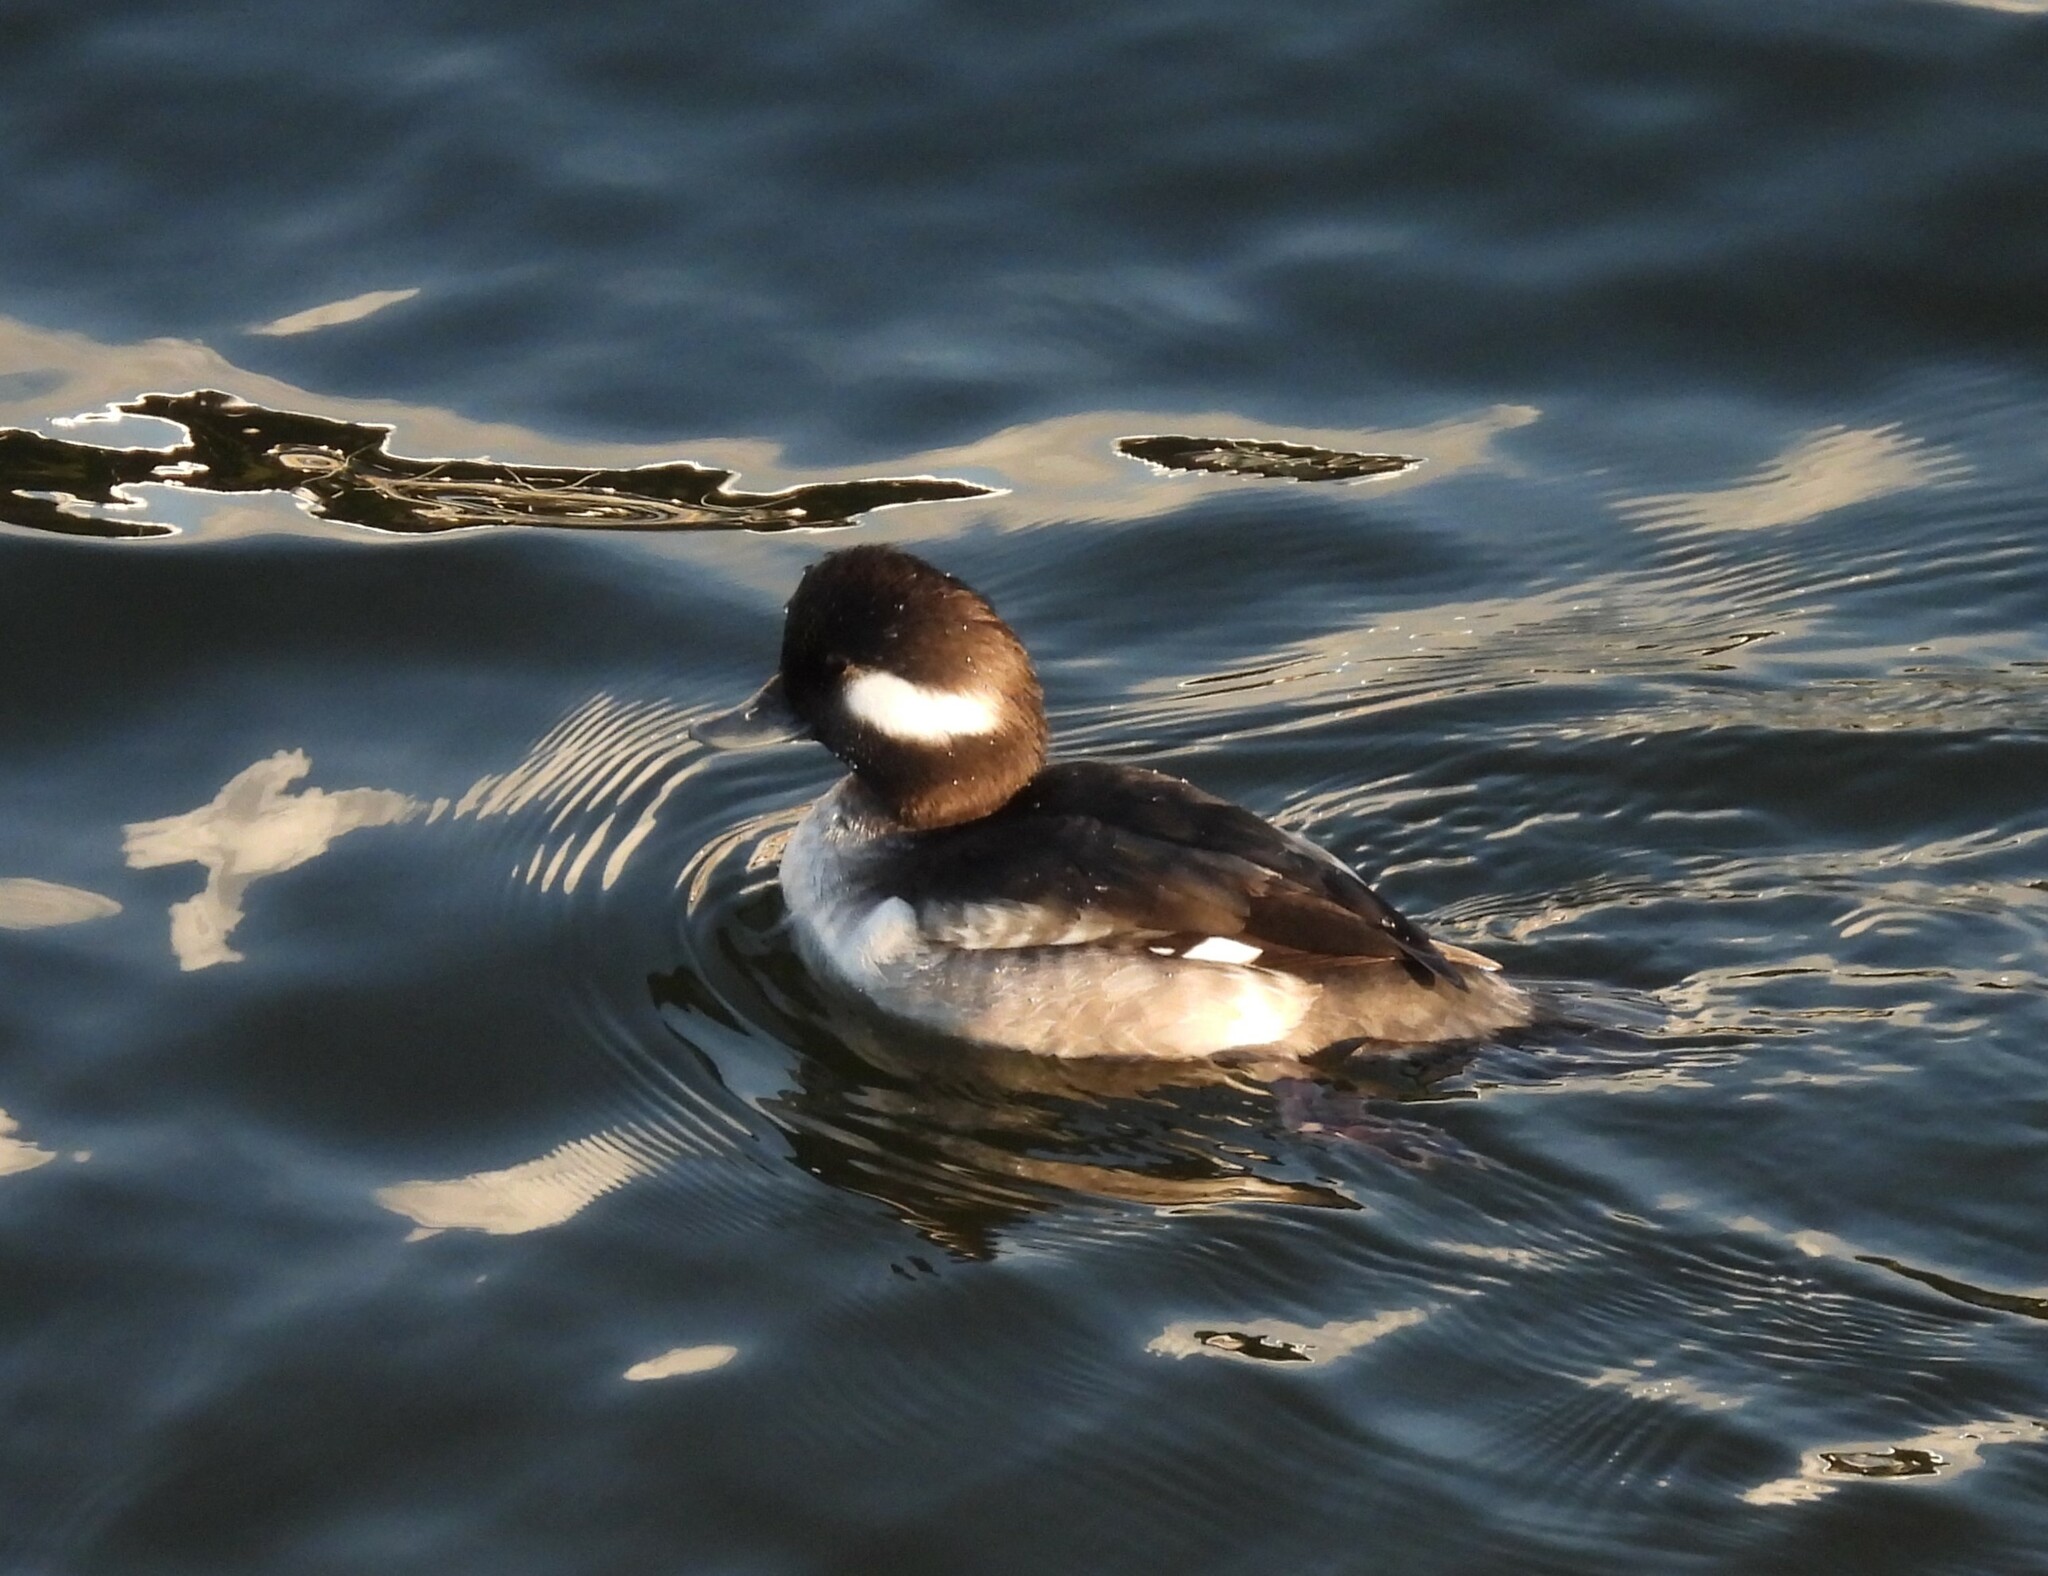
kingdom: Animalia
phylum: Chordata
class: Aves
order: Anseriformes
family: Anatidae
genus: Bucephala
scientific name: Bucephala albeola
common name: Bufflehead
